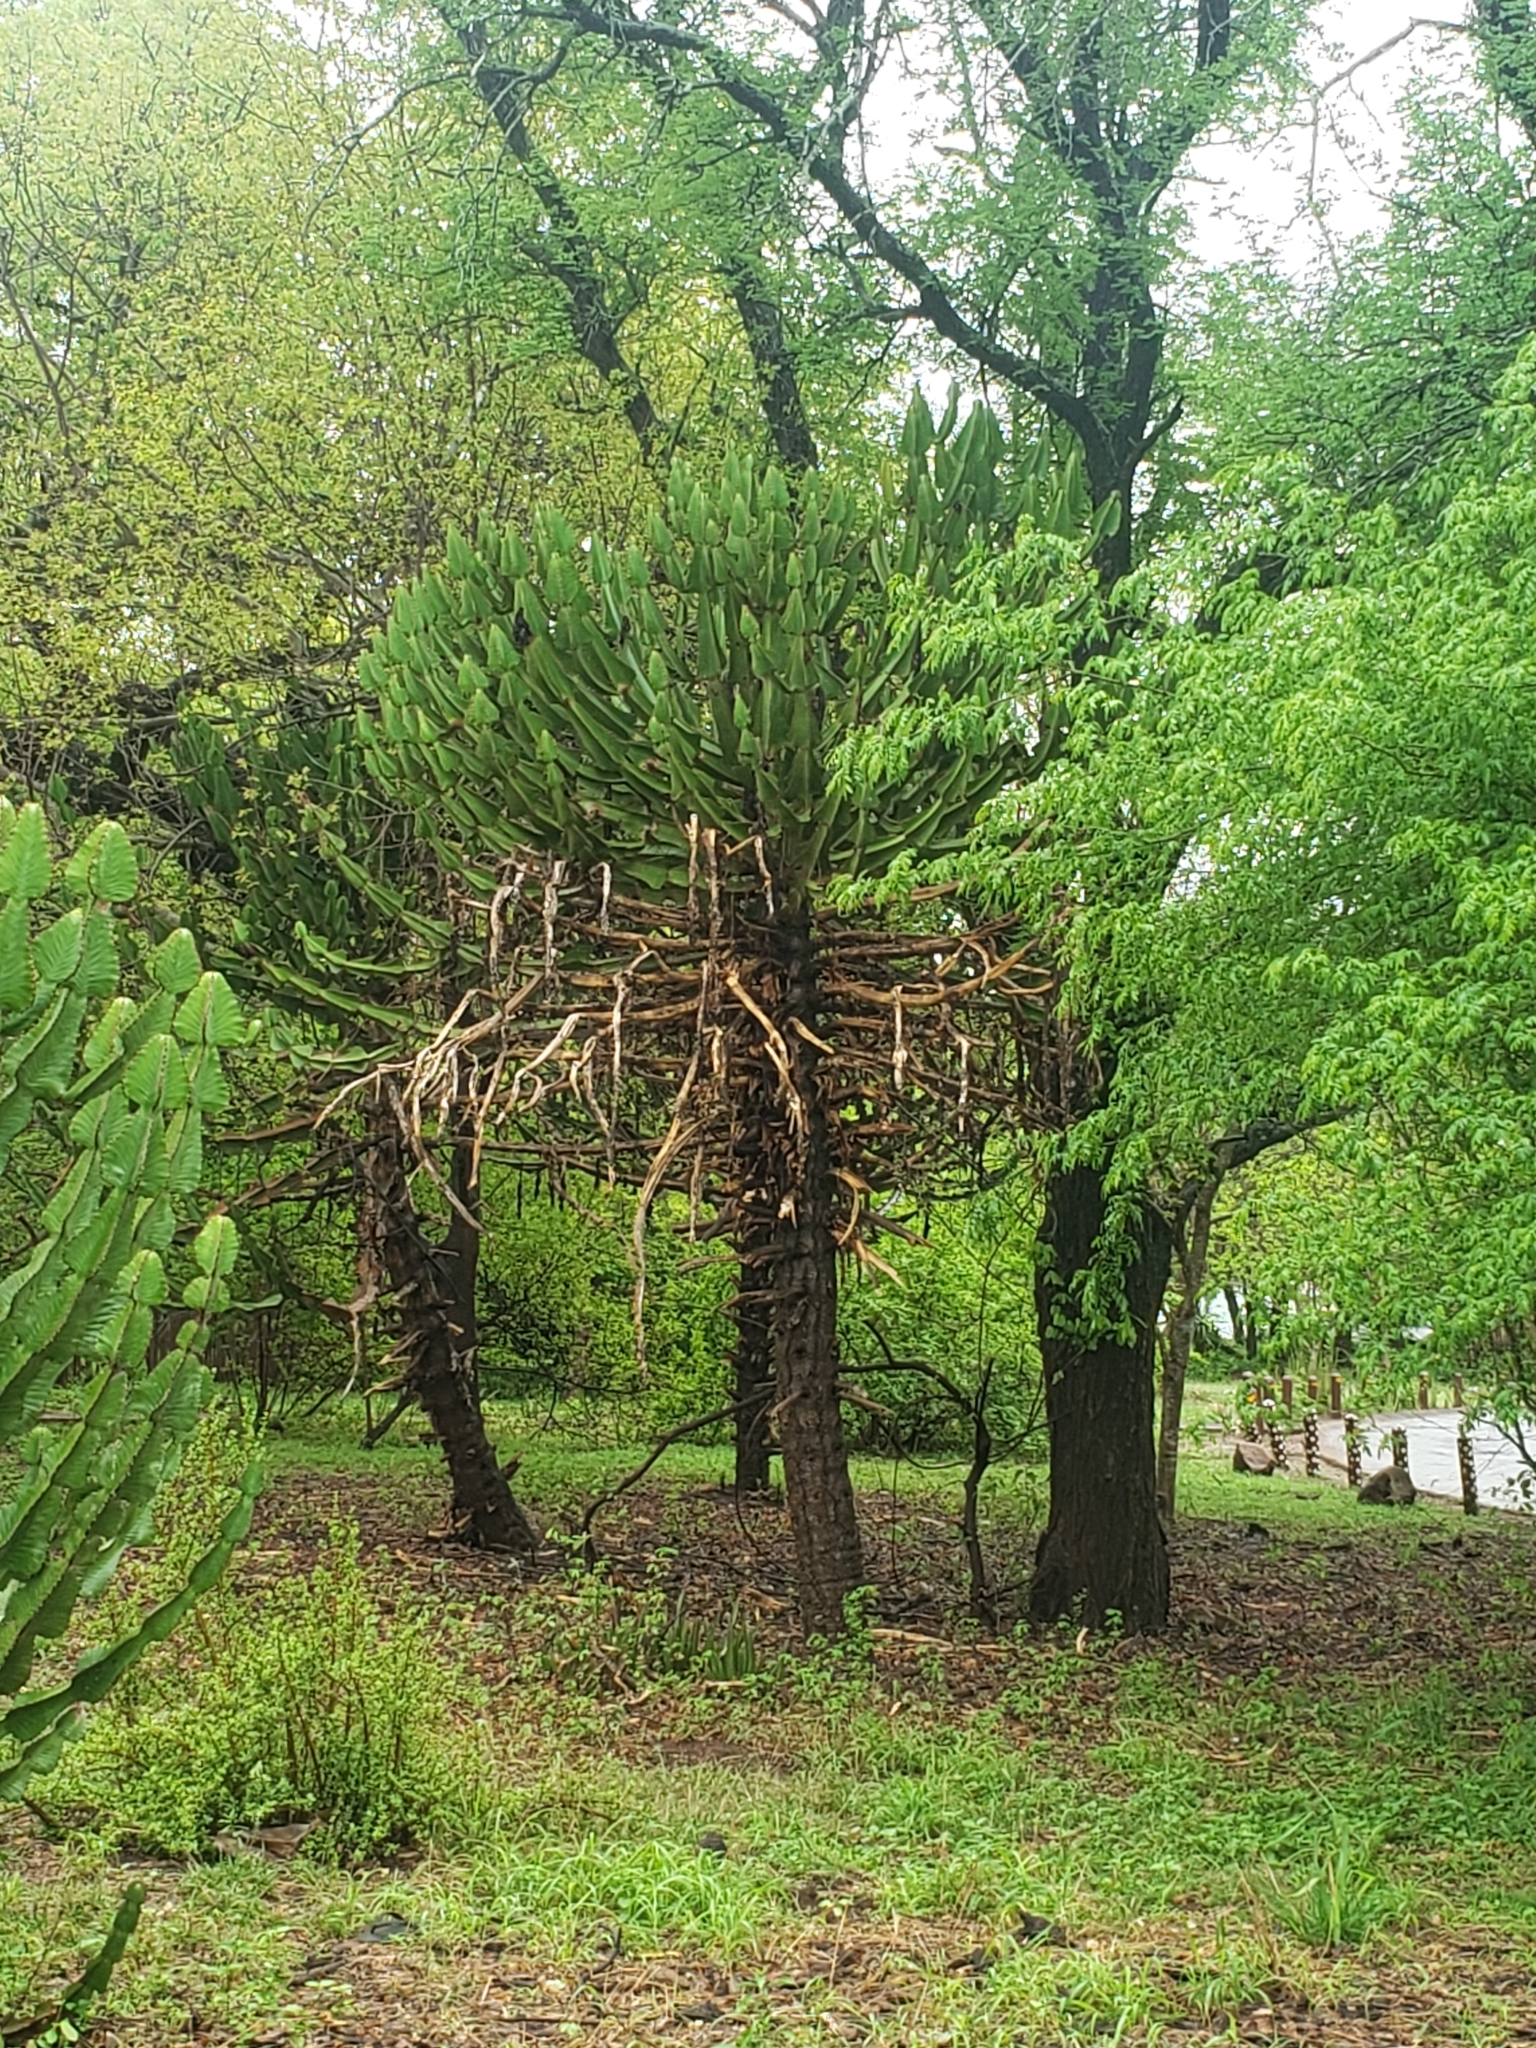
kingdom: Plantae
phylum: Tracheophyta
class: Magnoliopsida
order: Malpighiales
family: Euphorbiaceae
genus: Euphorbia
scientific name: Euphorbia cooperi
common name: Candelabra tree
